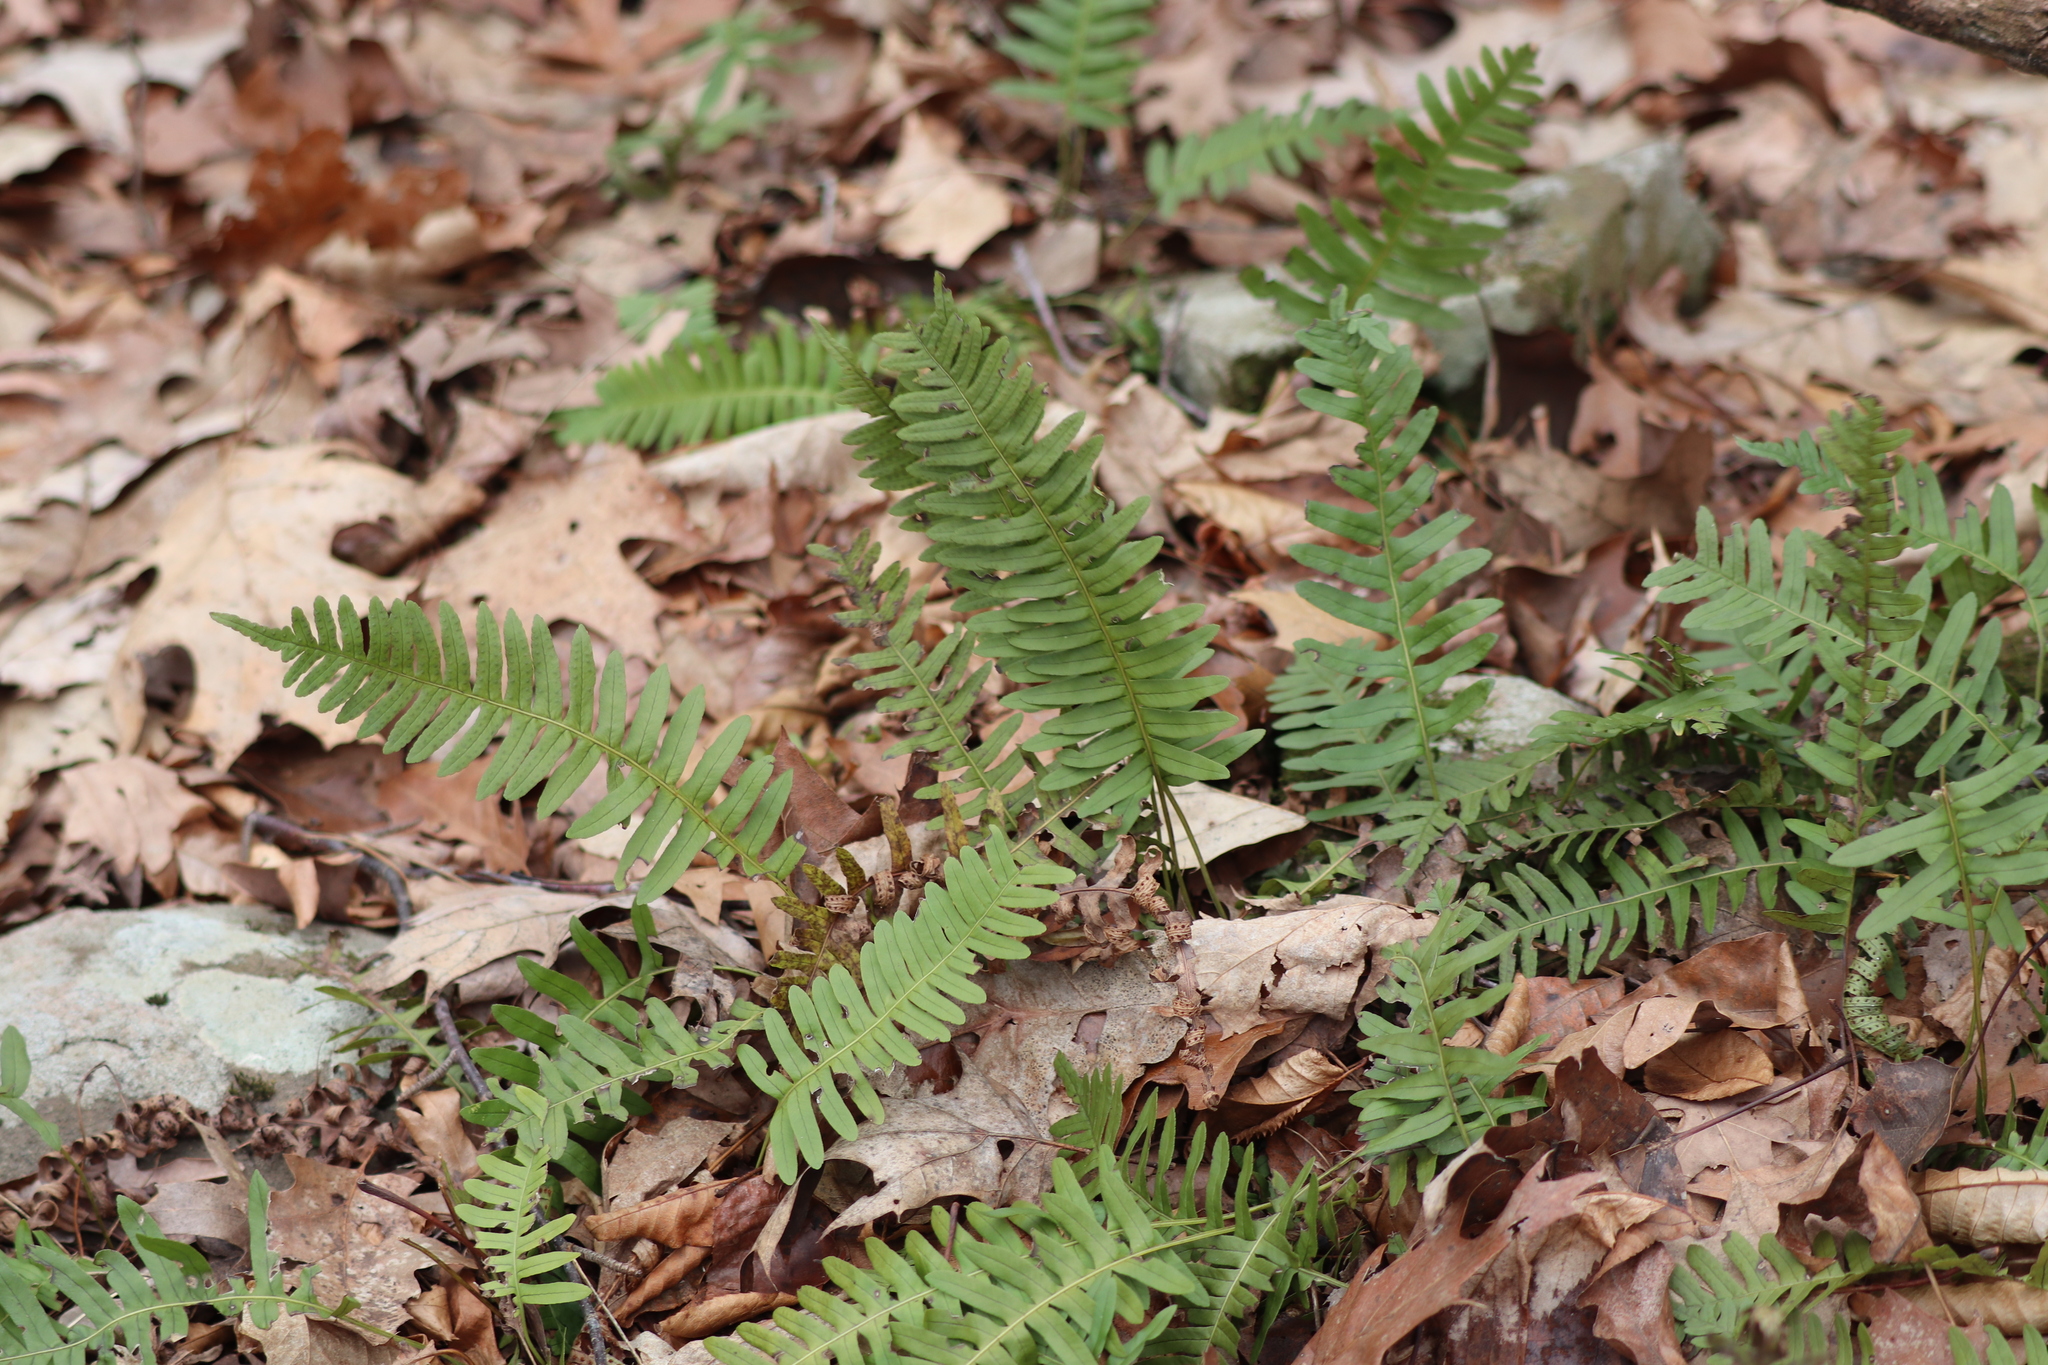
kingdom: Plantae
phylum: Tracheophyta
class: Polypodiopsida
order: Polypodiales
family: Polypodiaceae
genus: Polypodium
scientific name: Polypodium virginianum
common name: American wall fern
